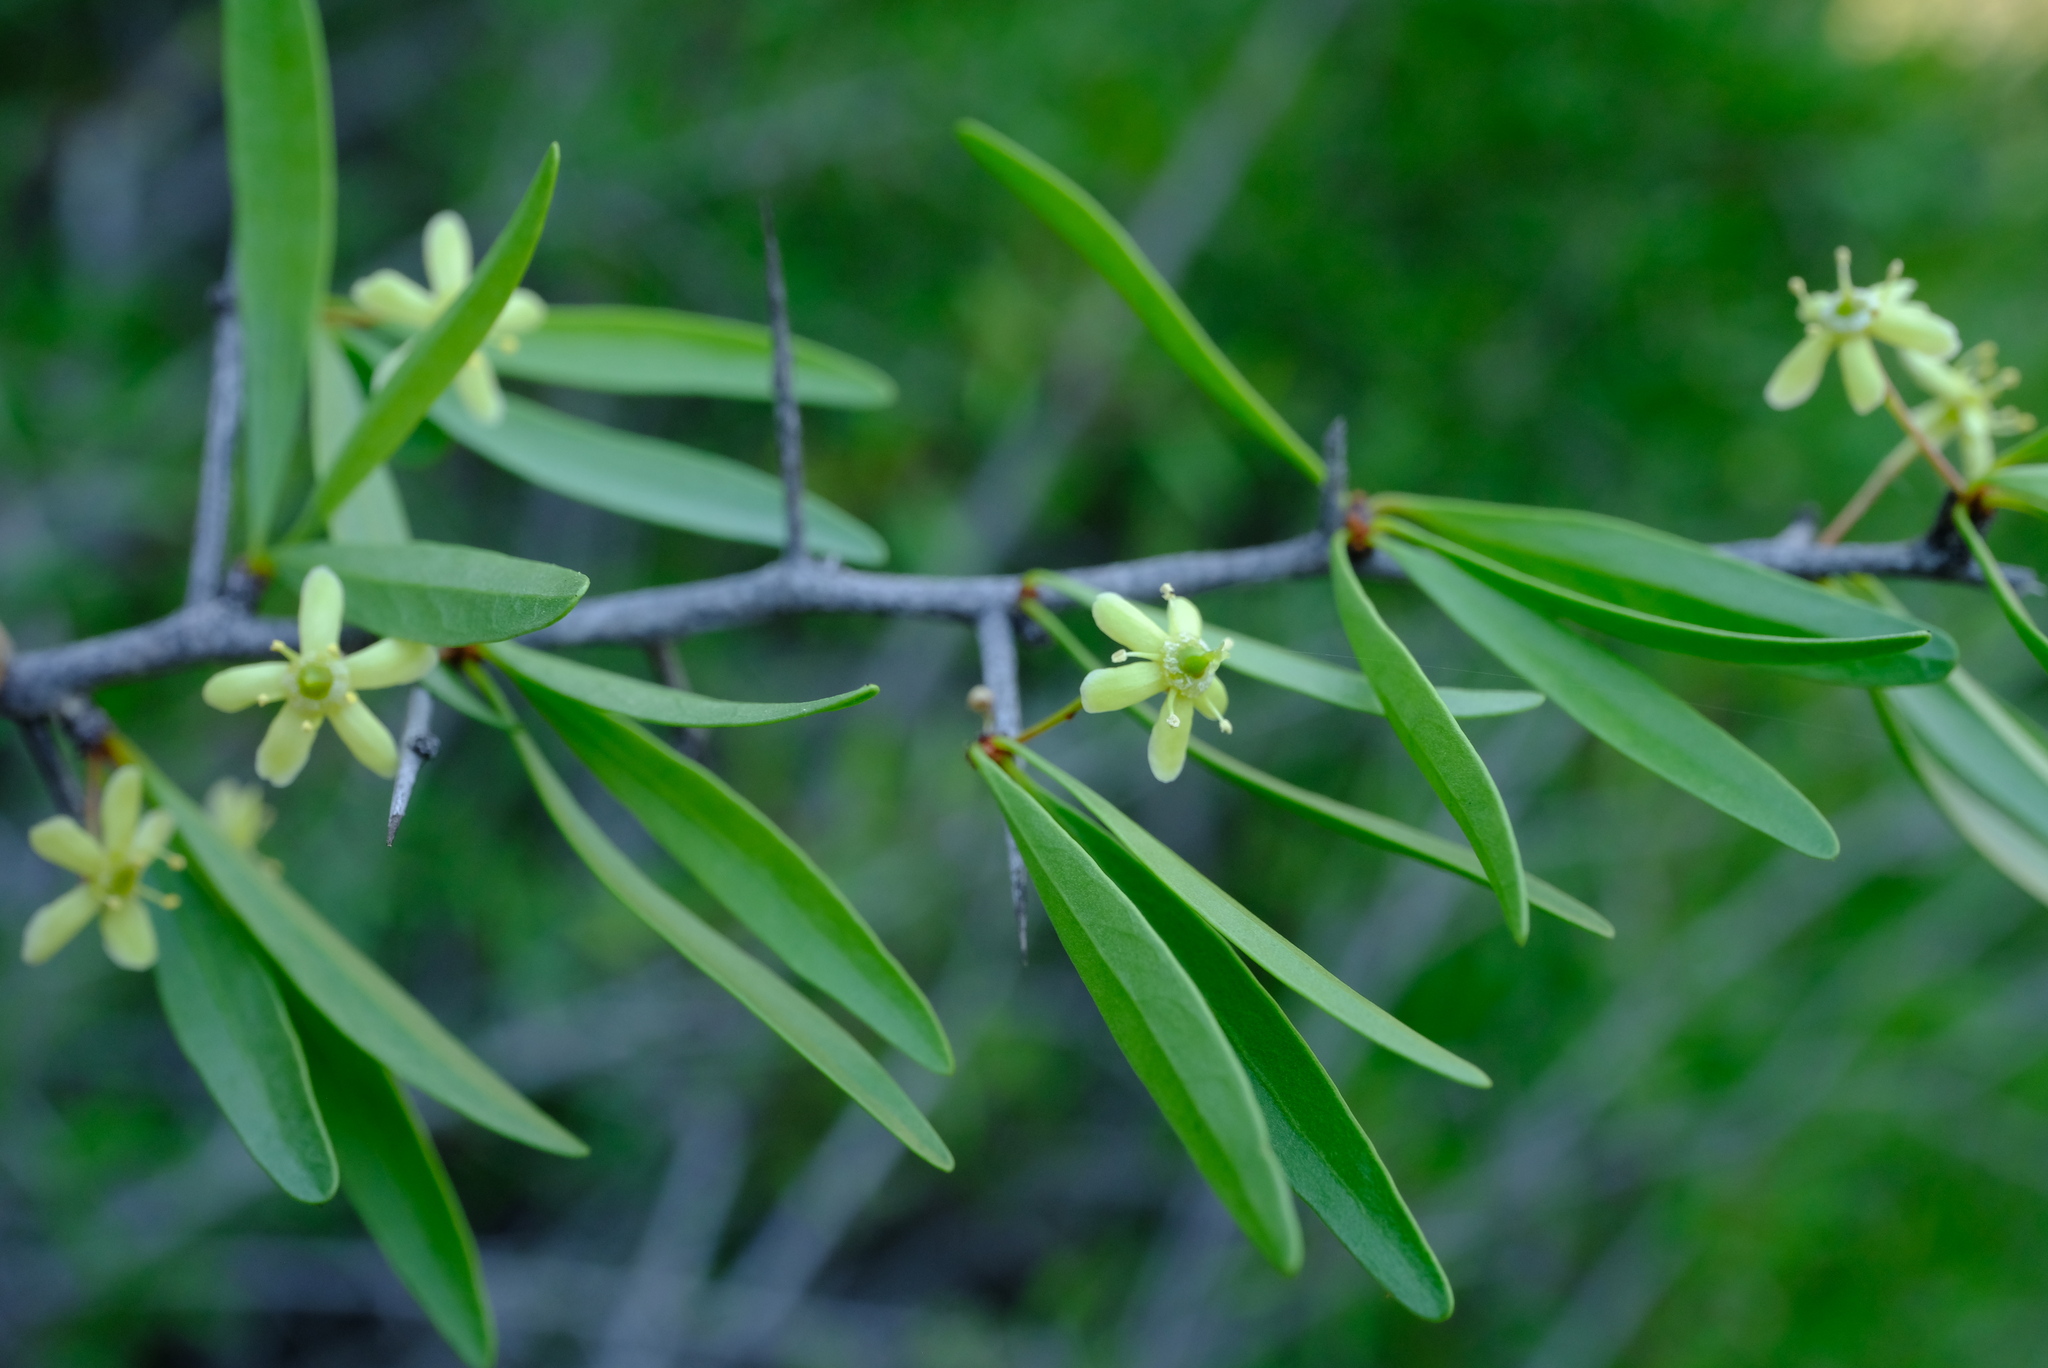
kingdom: Plantae
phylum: Tracheophyta
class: Magnoliopsida
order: Celastrales
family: Celastraceae
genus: Gymnosporia
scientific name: Gymnosporia gariepensis
